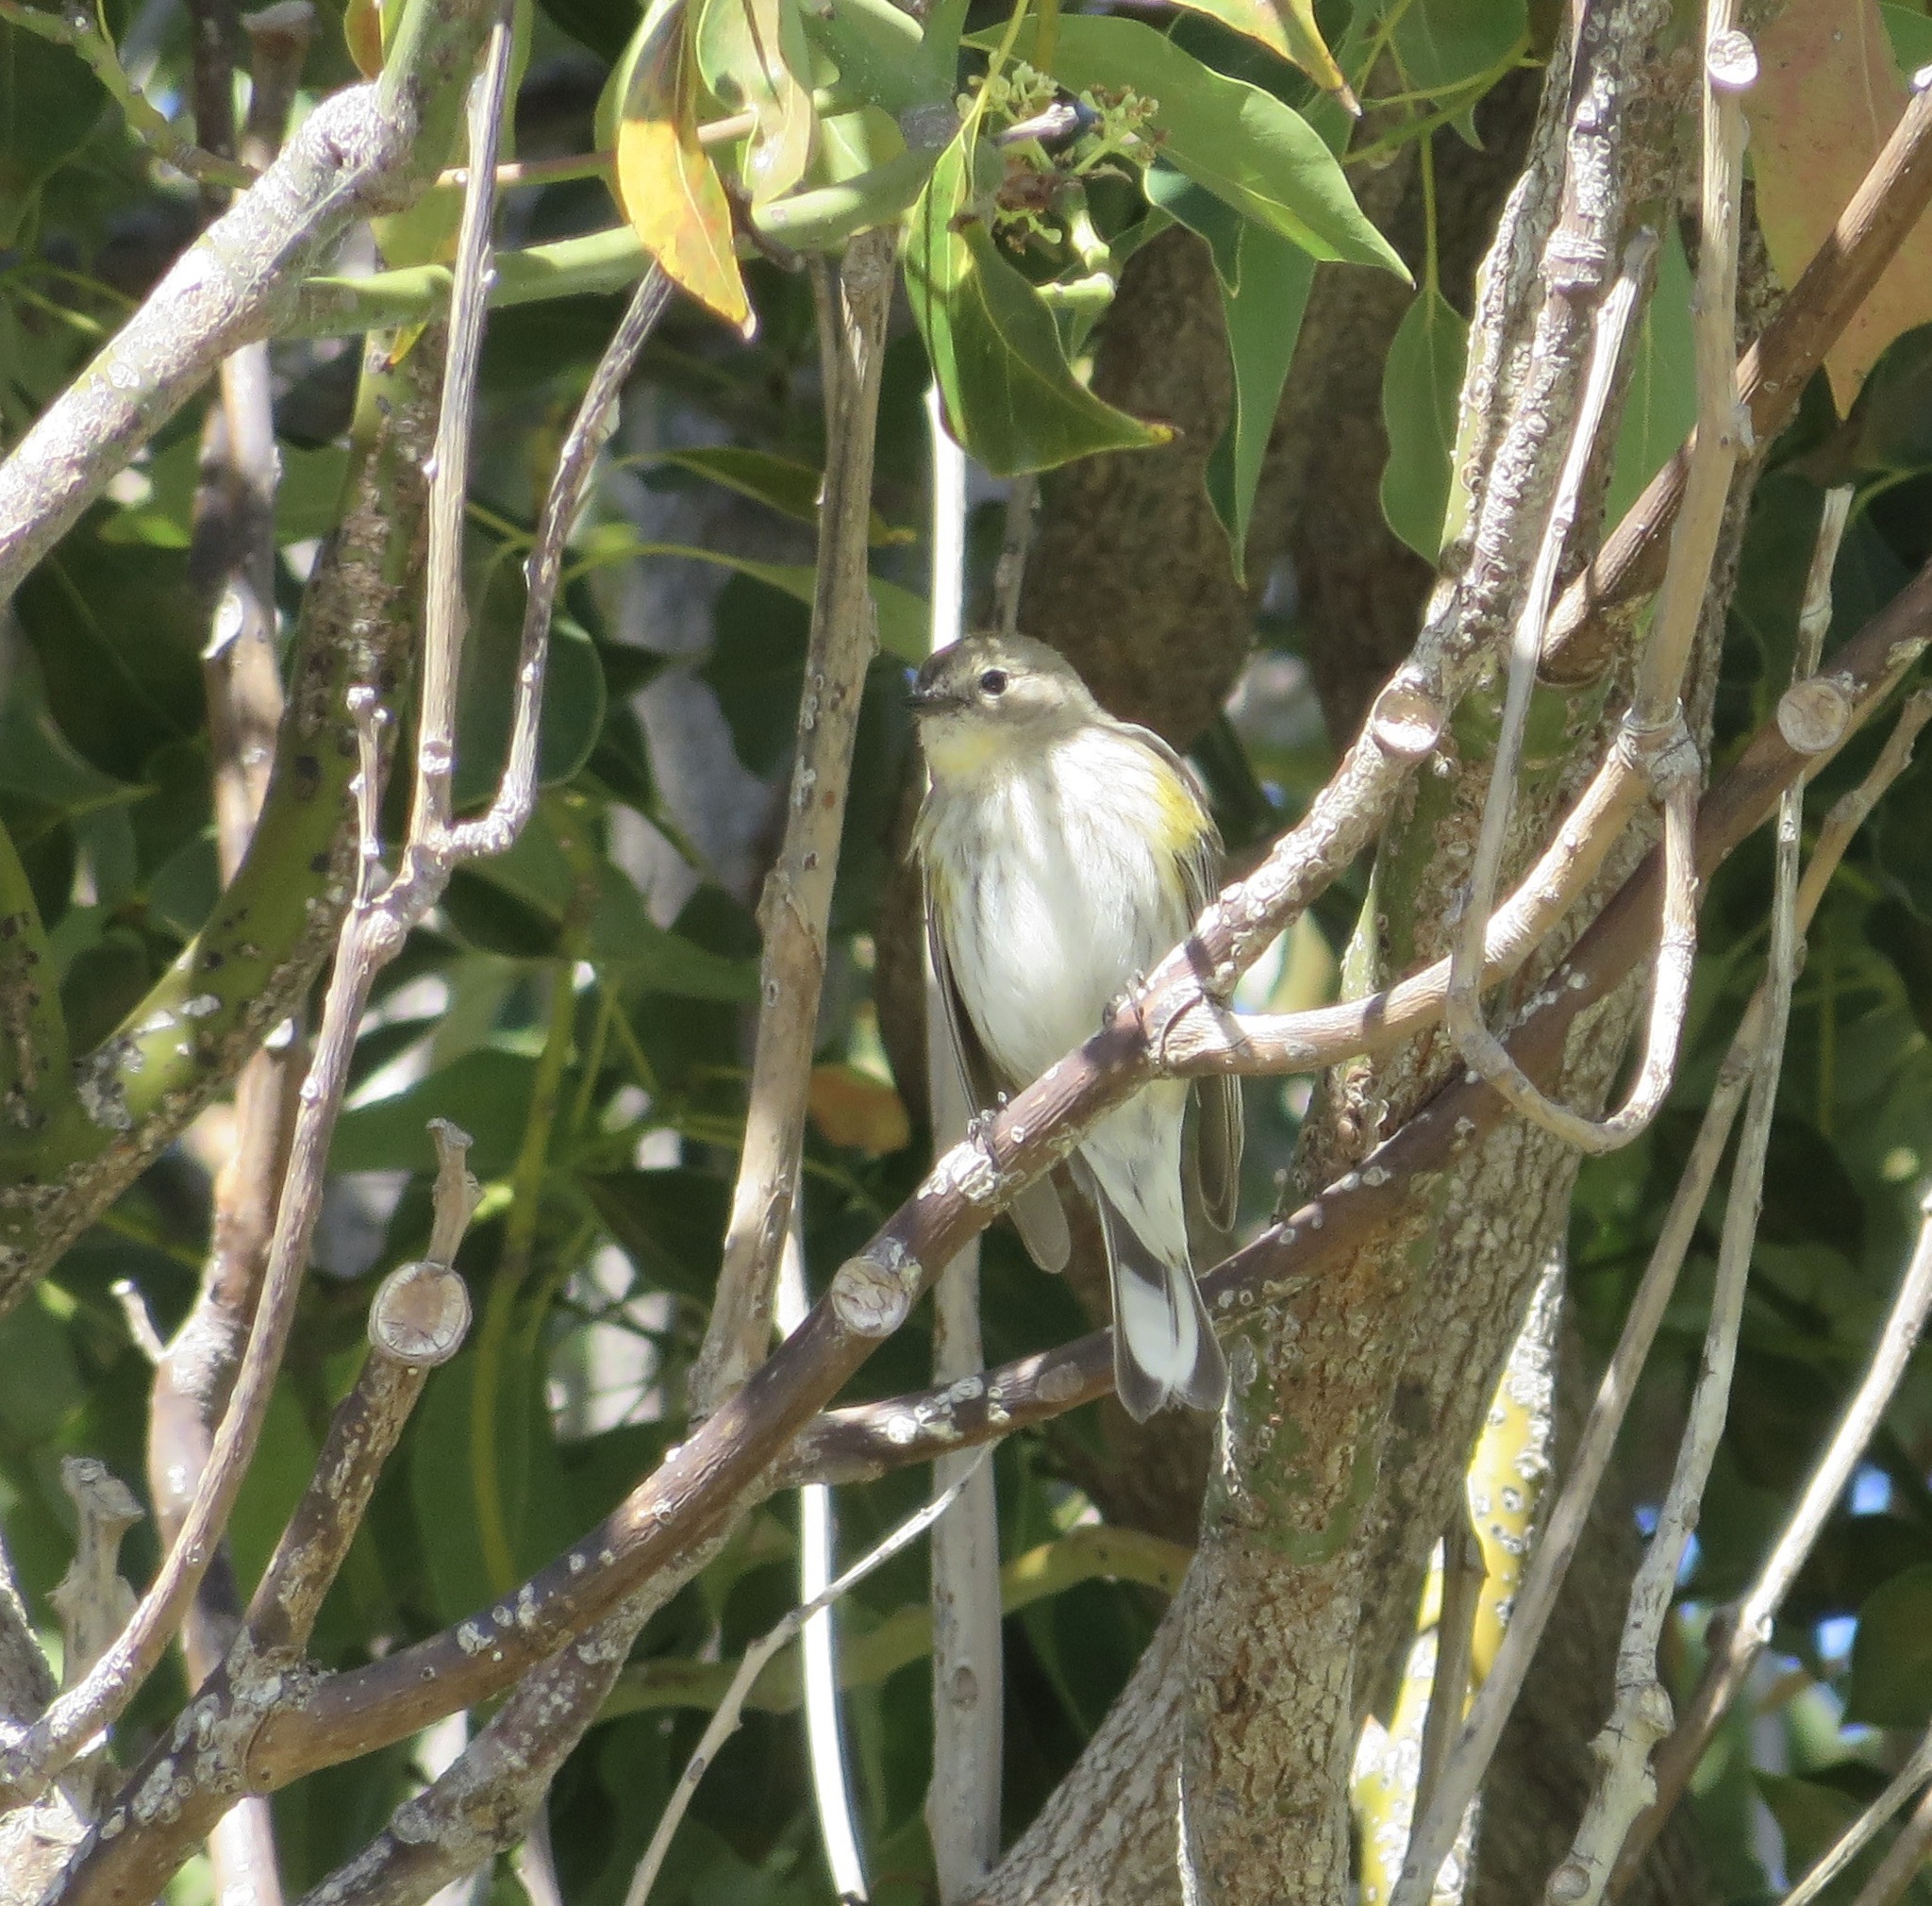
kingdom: Animalia
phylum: Chordata
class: Aves
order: Passeriformes
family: Parulidae
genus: Setophaga
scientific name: Setophaga coronata
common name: Myrtle warbler
